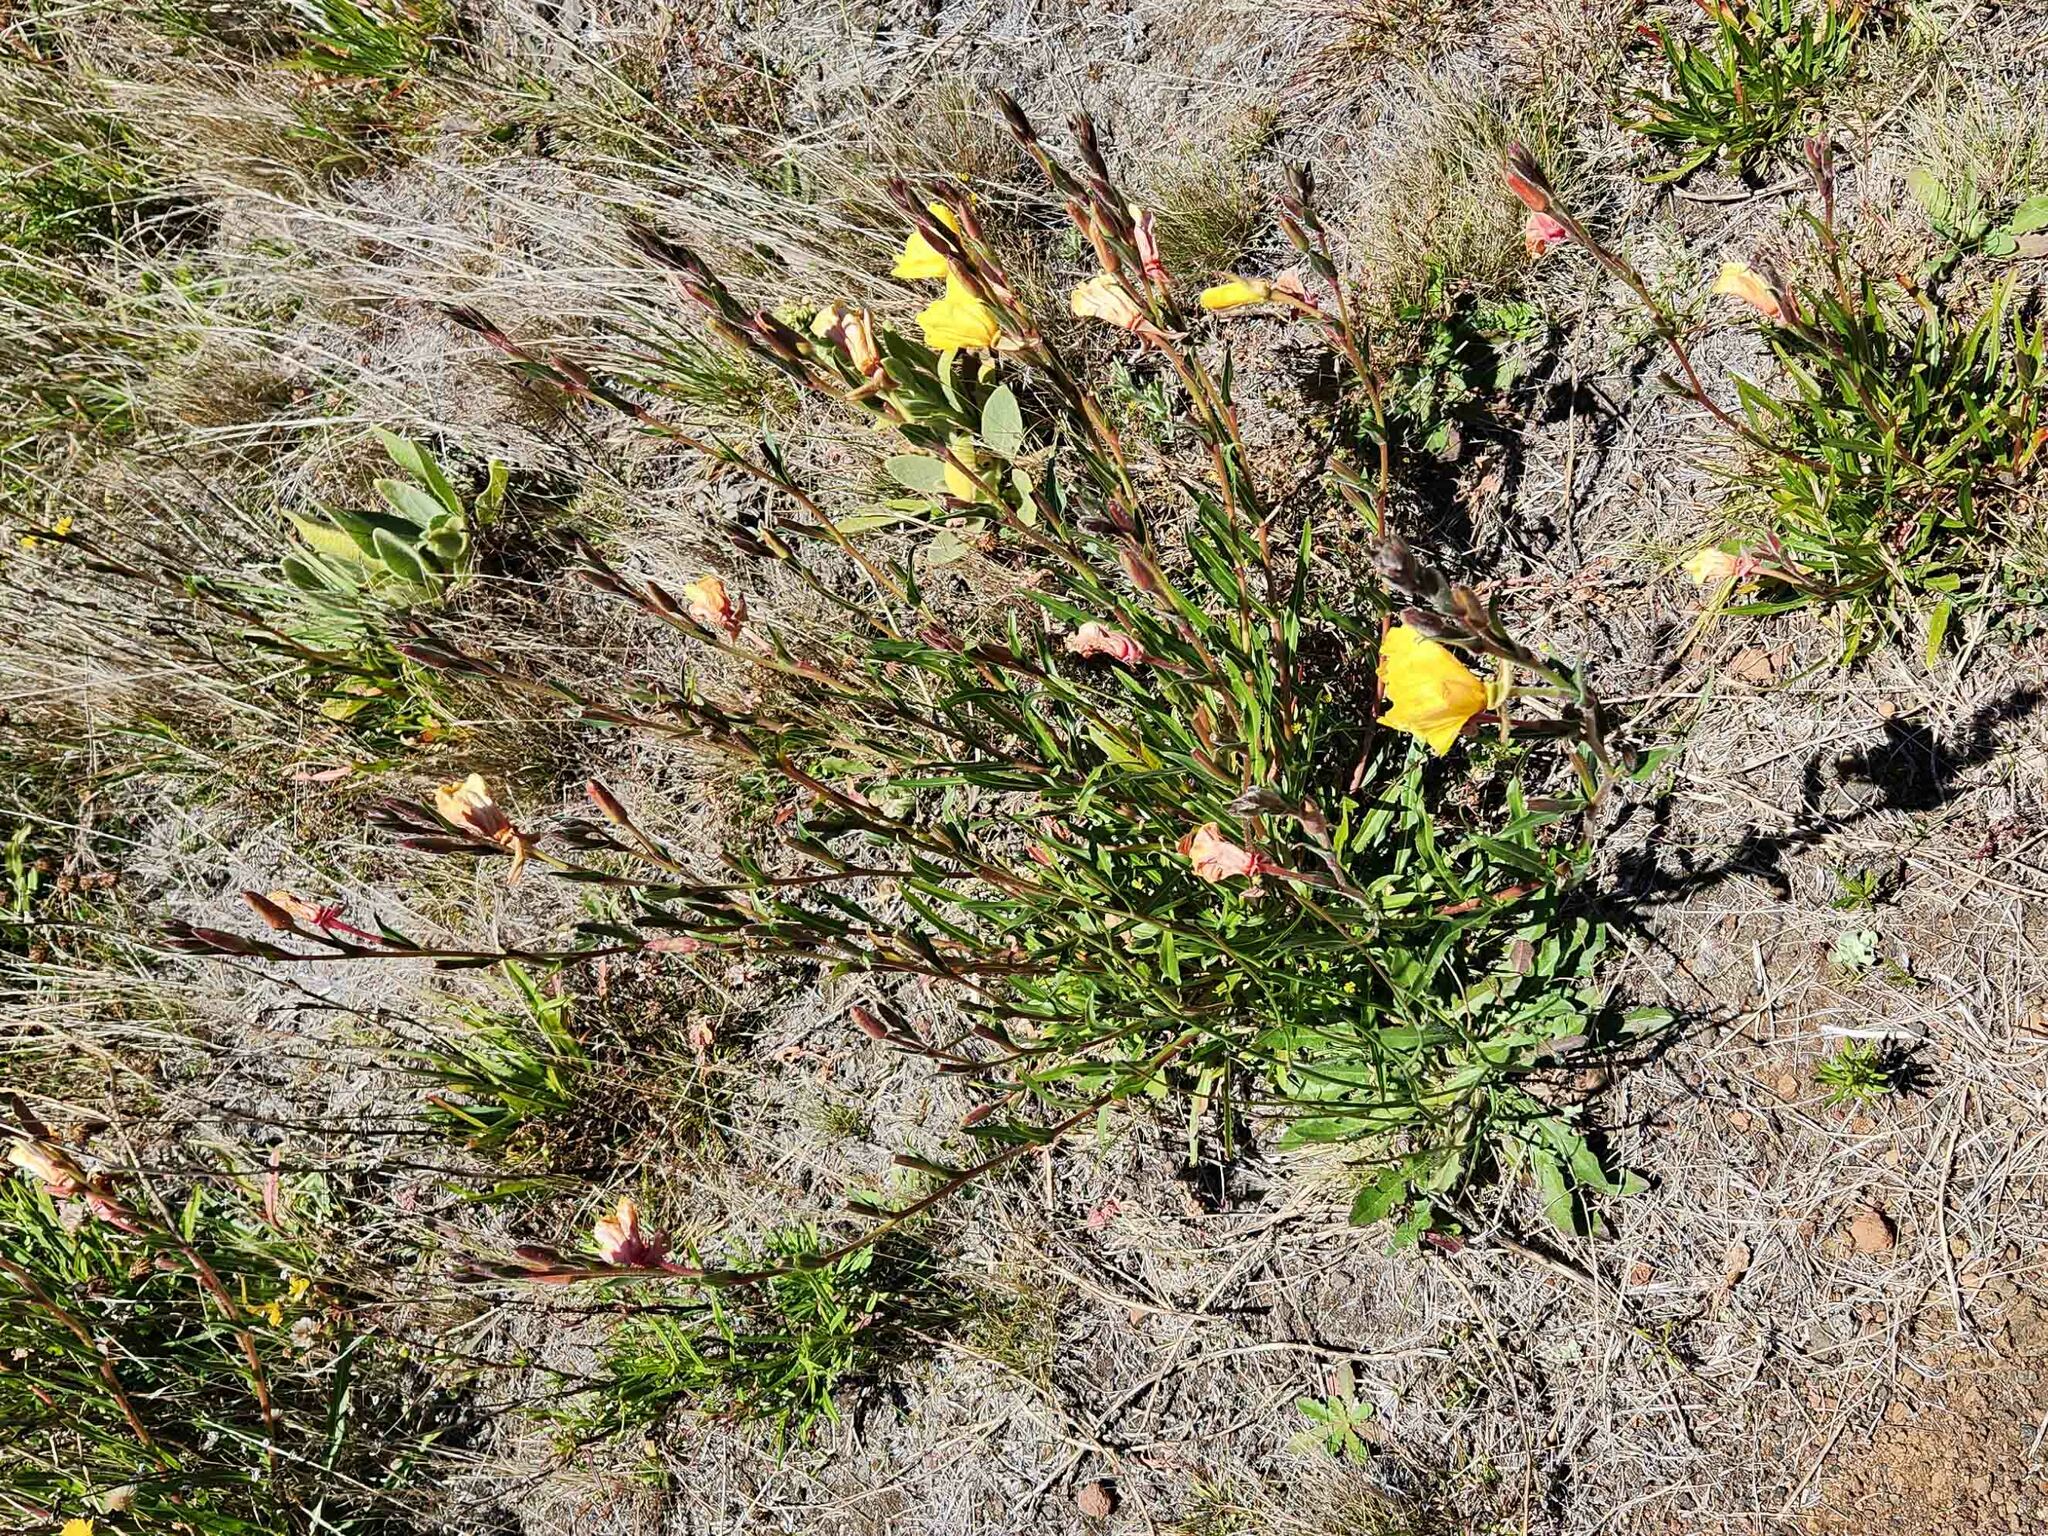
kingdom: Plantae
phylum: Tracheophyta
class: Magnoliopsida
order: Myrtales
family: Onagraceae
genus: Oenothera
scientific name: Oenothera stricta
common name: Fragrant evening-primrose
